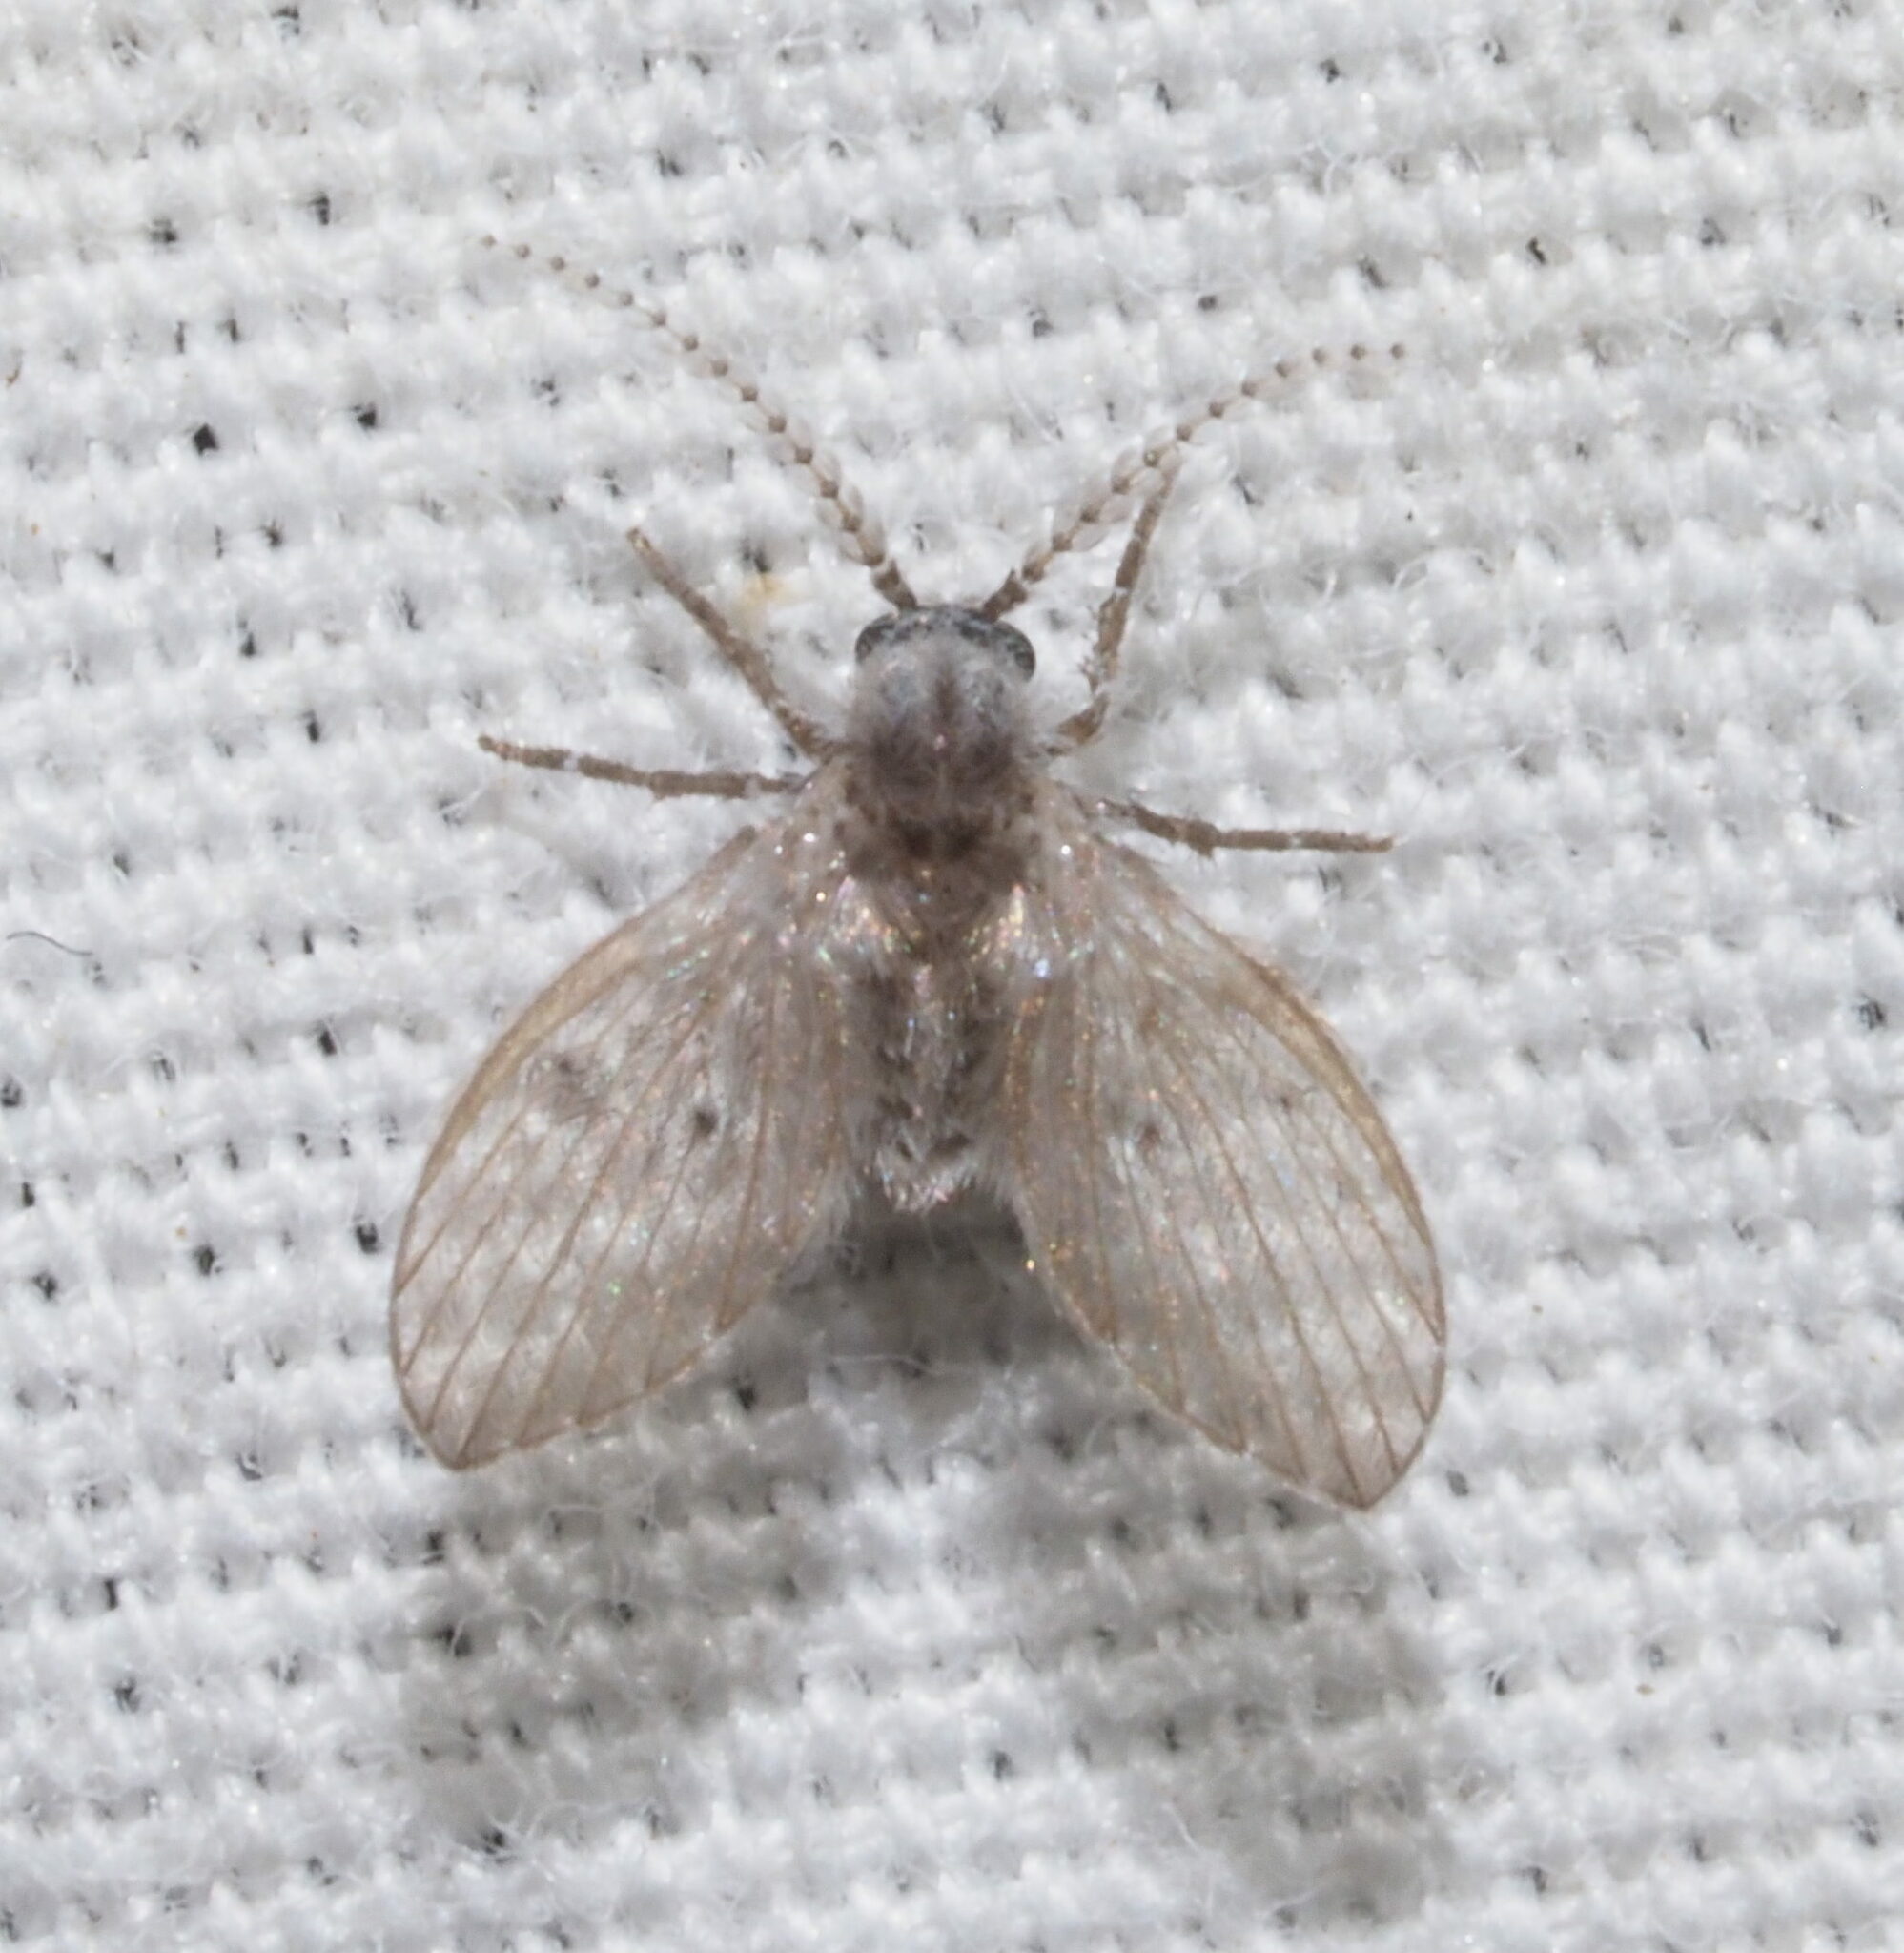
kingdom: Animalia
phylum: Arthropoda
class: Insecta
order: Diptera
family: Psychodidae
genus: Clogmia
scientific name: Clogmia albipunctatus
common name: White-spotted moth fly
